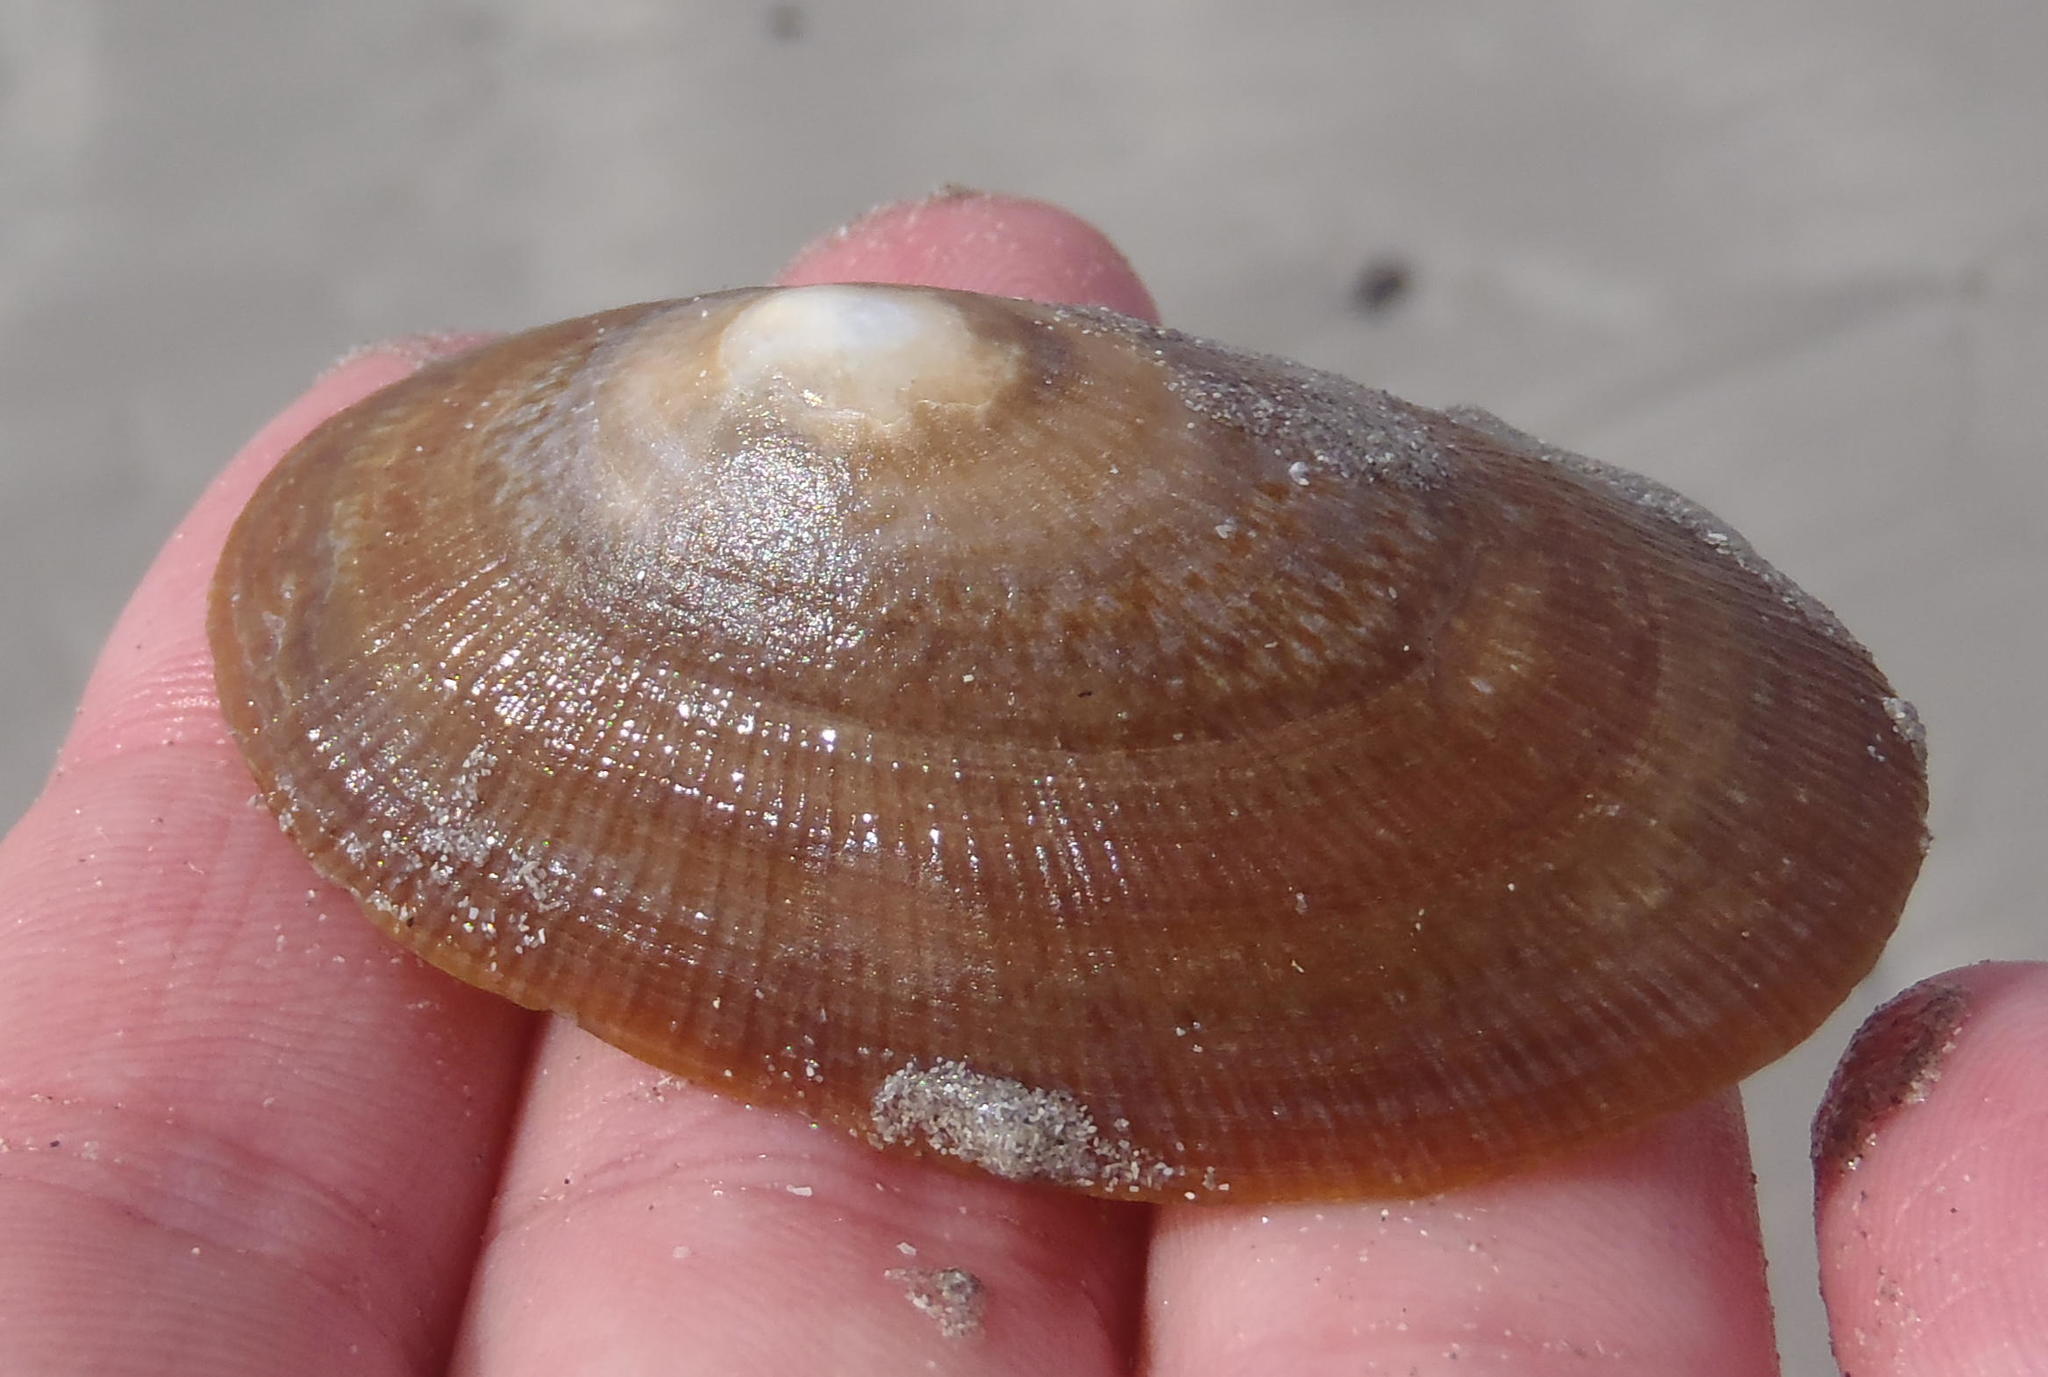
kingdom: Animalia
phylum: Mollusca
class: Gastropoda
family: Patellidae
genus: Cymbula
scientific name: Cymbula compressa
